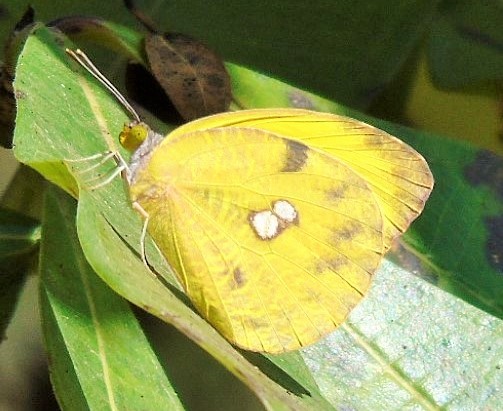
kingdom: Animalia
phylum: Arthropoda
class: Insecta
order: Lepidoptera
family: Pieridae
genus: Prestonia
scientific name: Prestonia clarki
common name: West-mexican sulphur
